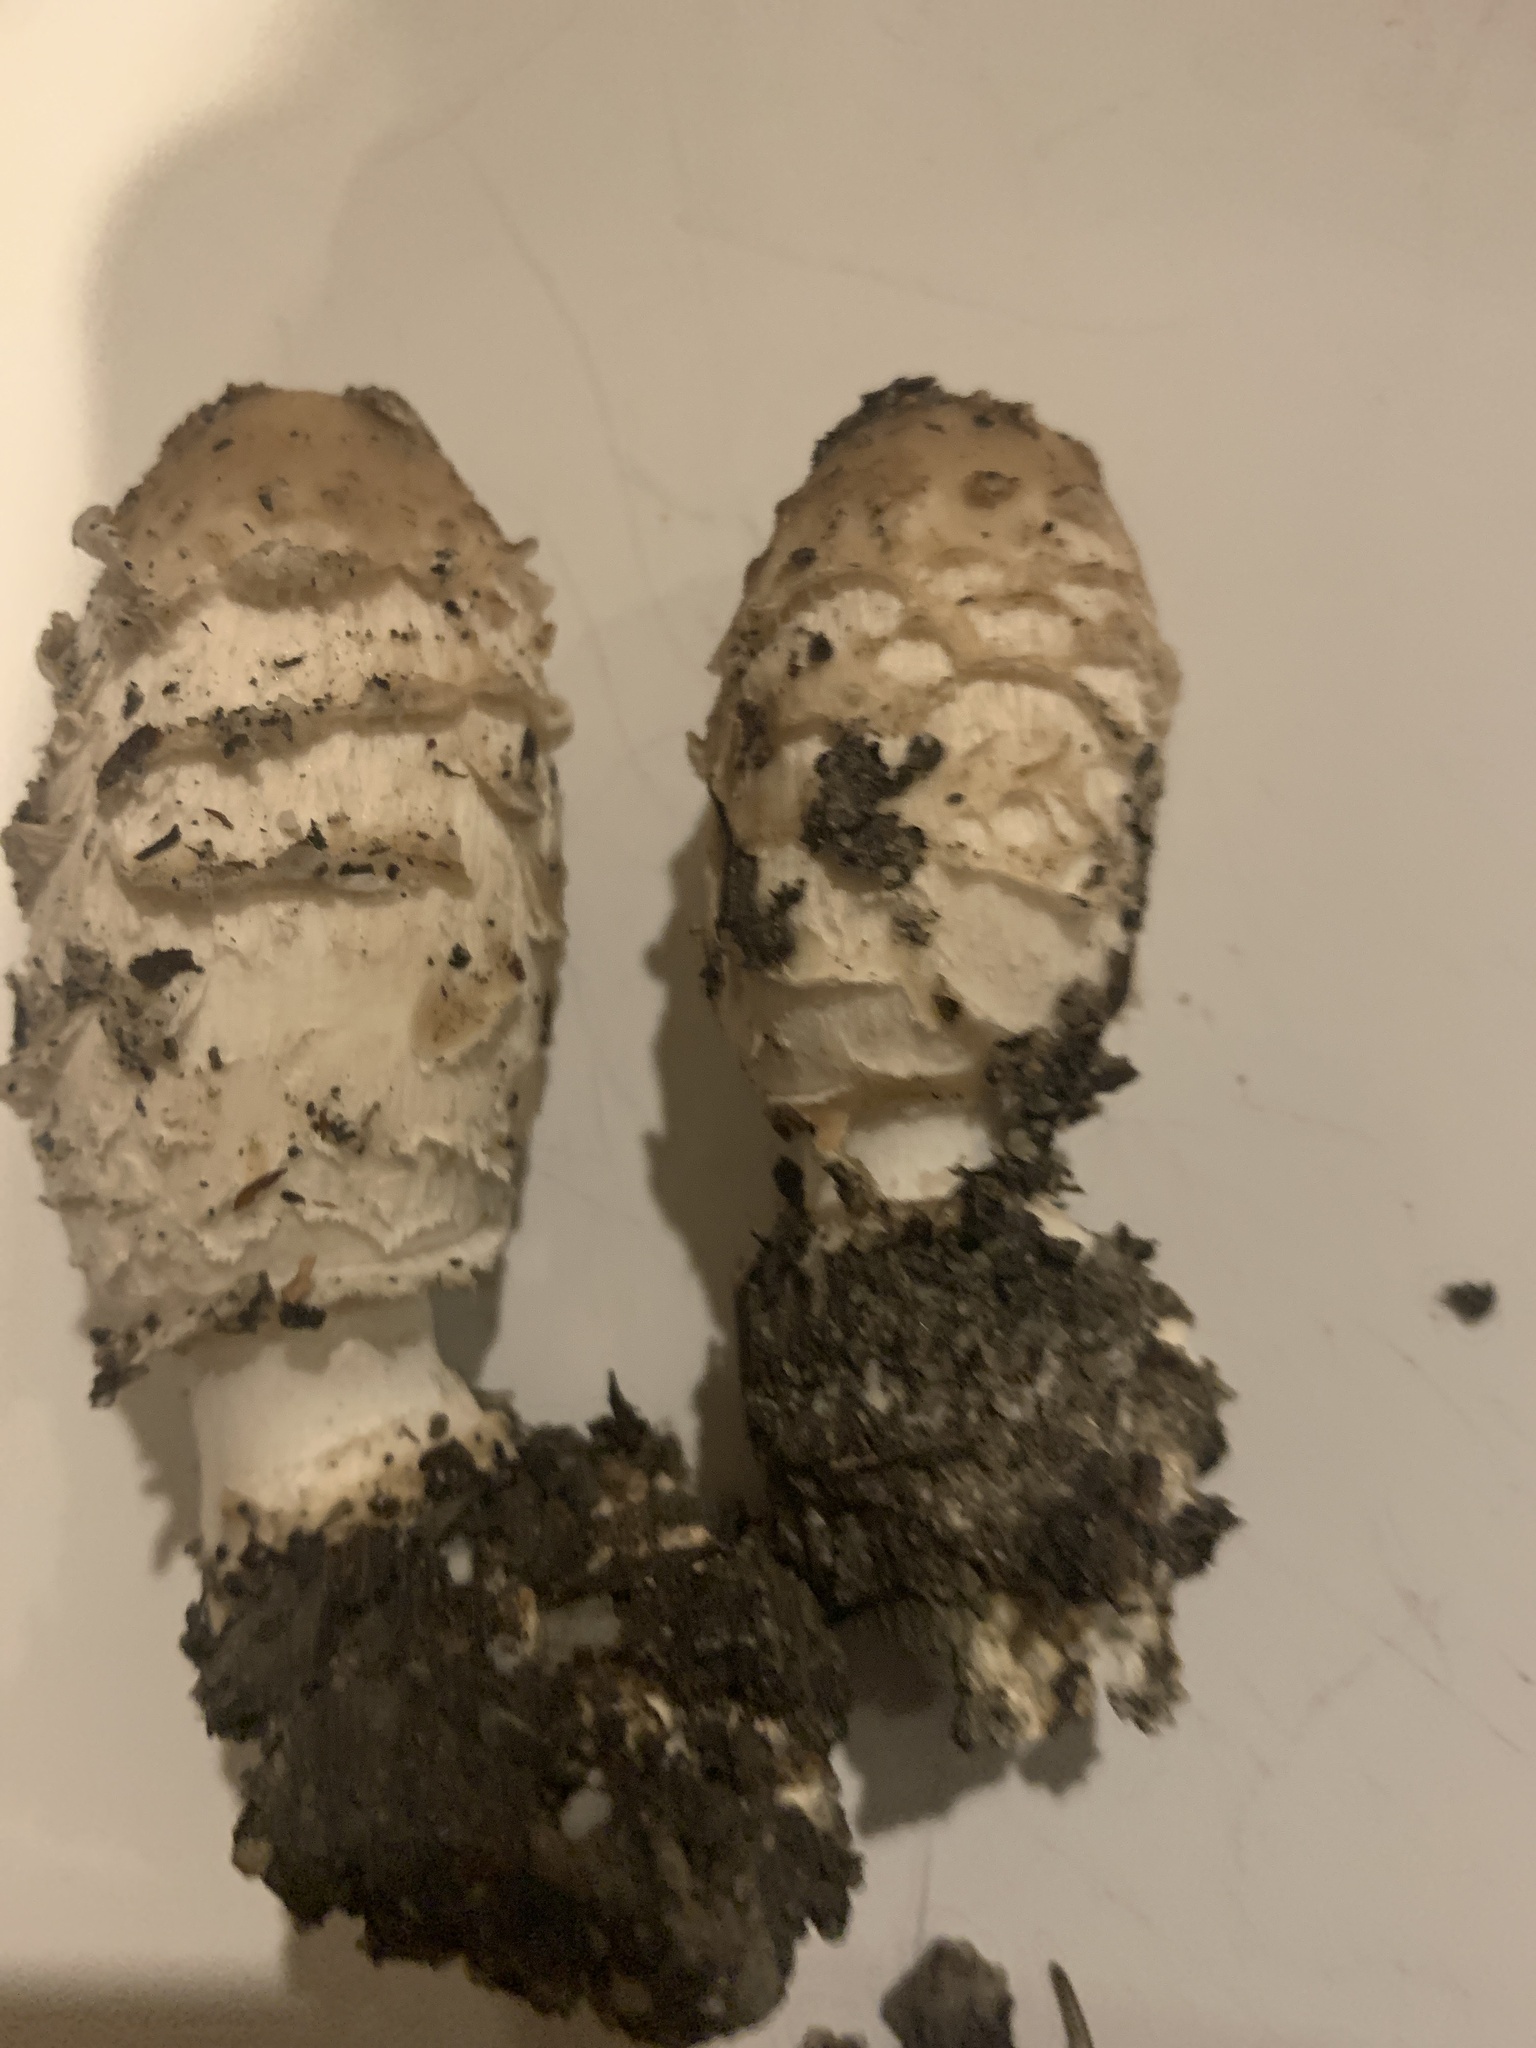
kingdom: Fungi
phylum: Basidiomycota
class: Agaricomycetes
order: Agaricales
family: Agaricaceae
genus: Coprinus
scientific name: Coprinus comatus
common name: Lawyer's wig
